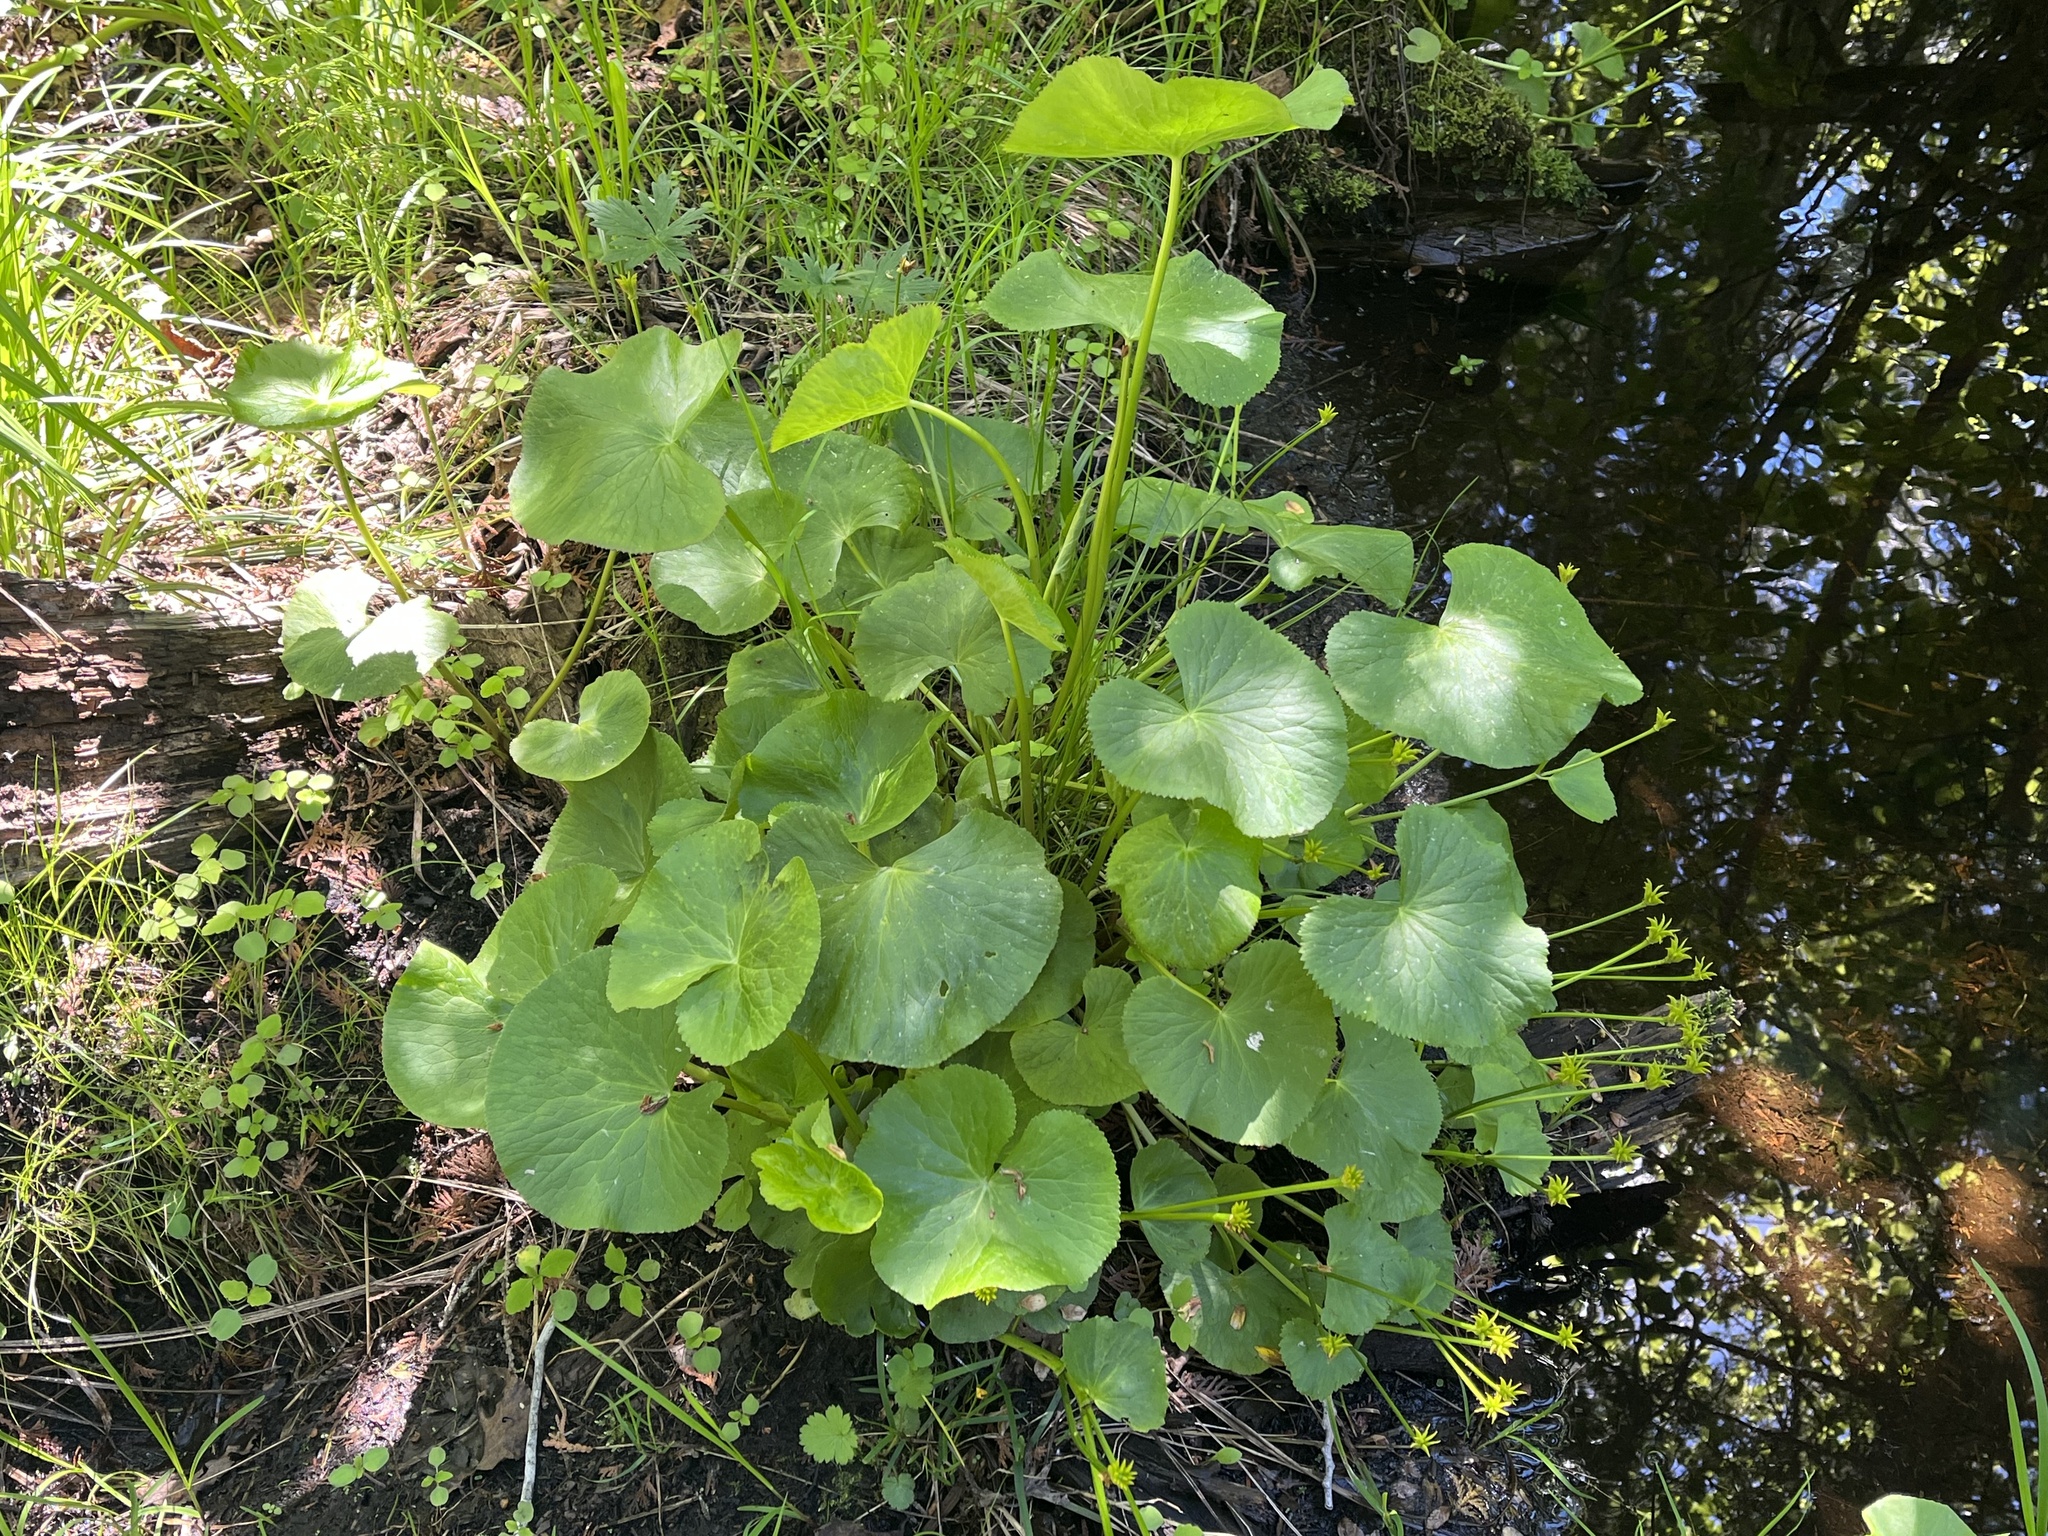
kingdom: Plantae
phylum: Tracheophyta
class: Magnoliopsida
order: Ranunculales
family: Ranunculaceae
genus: Caltha
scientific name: Caltha palustris
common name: Marsh marigold
